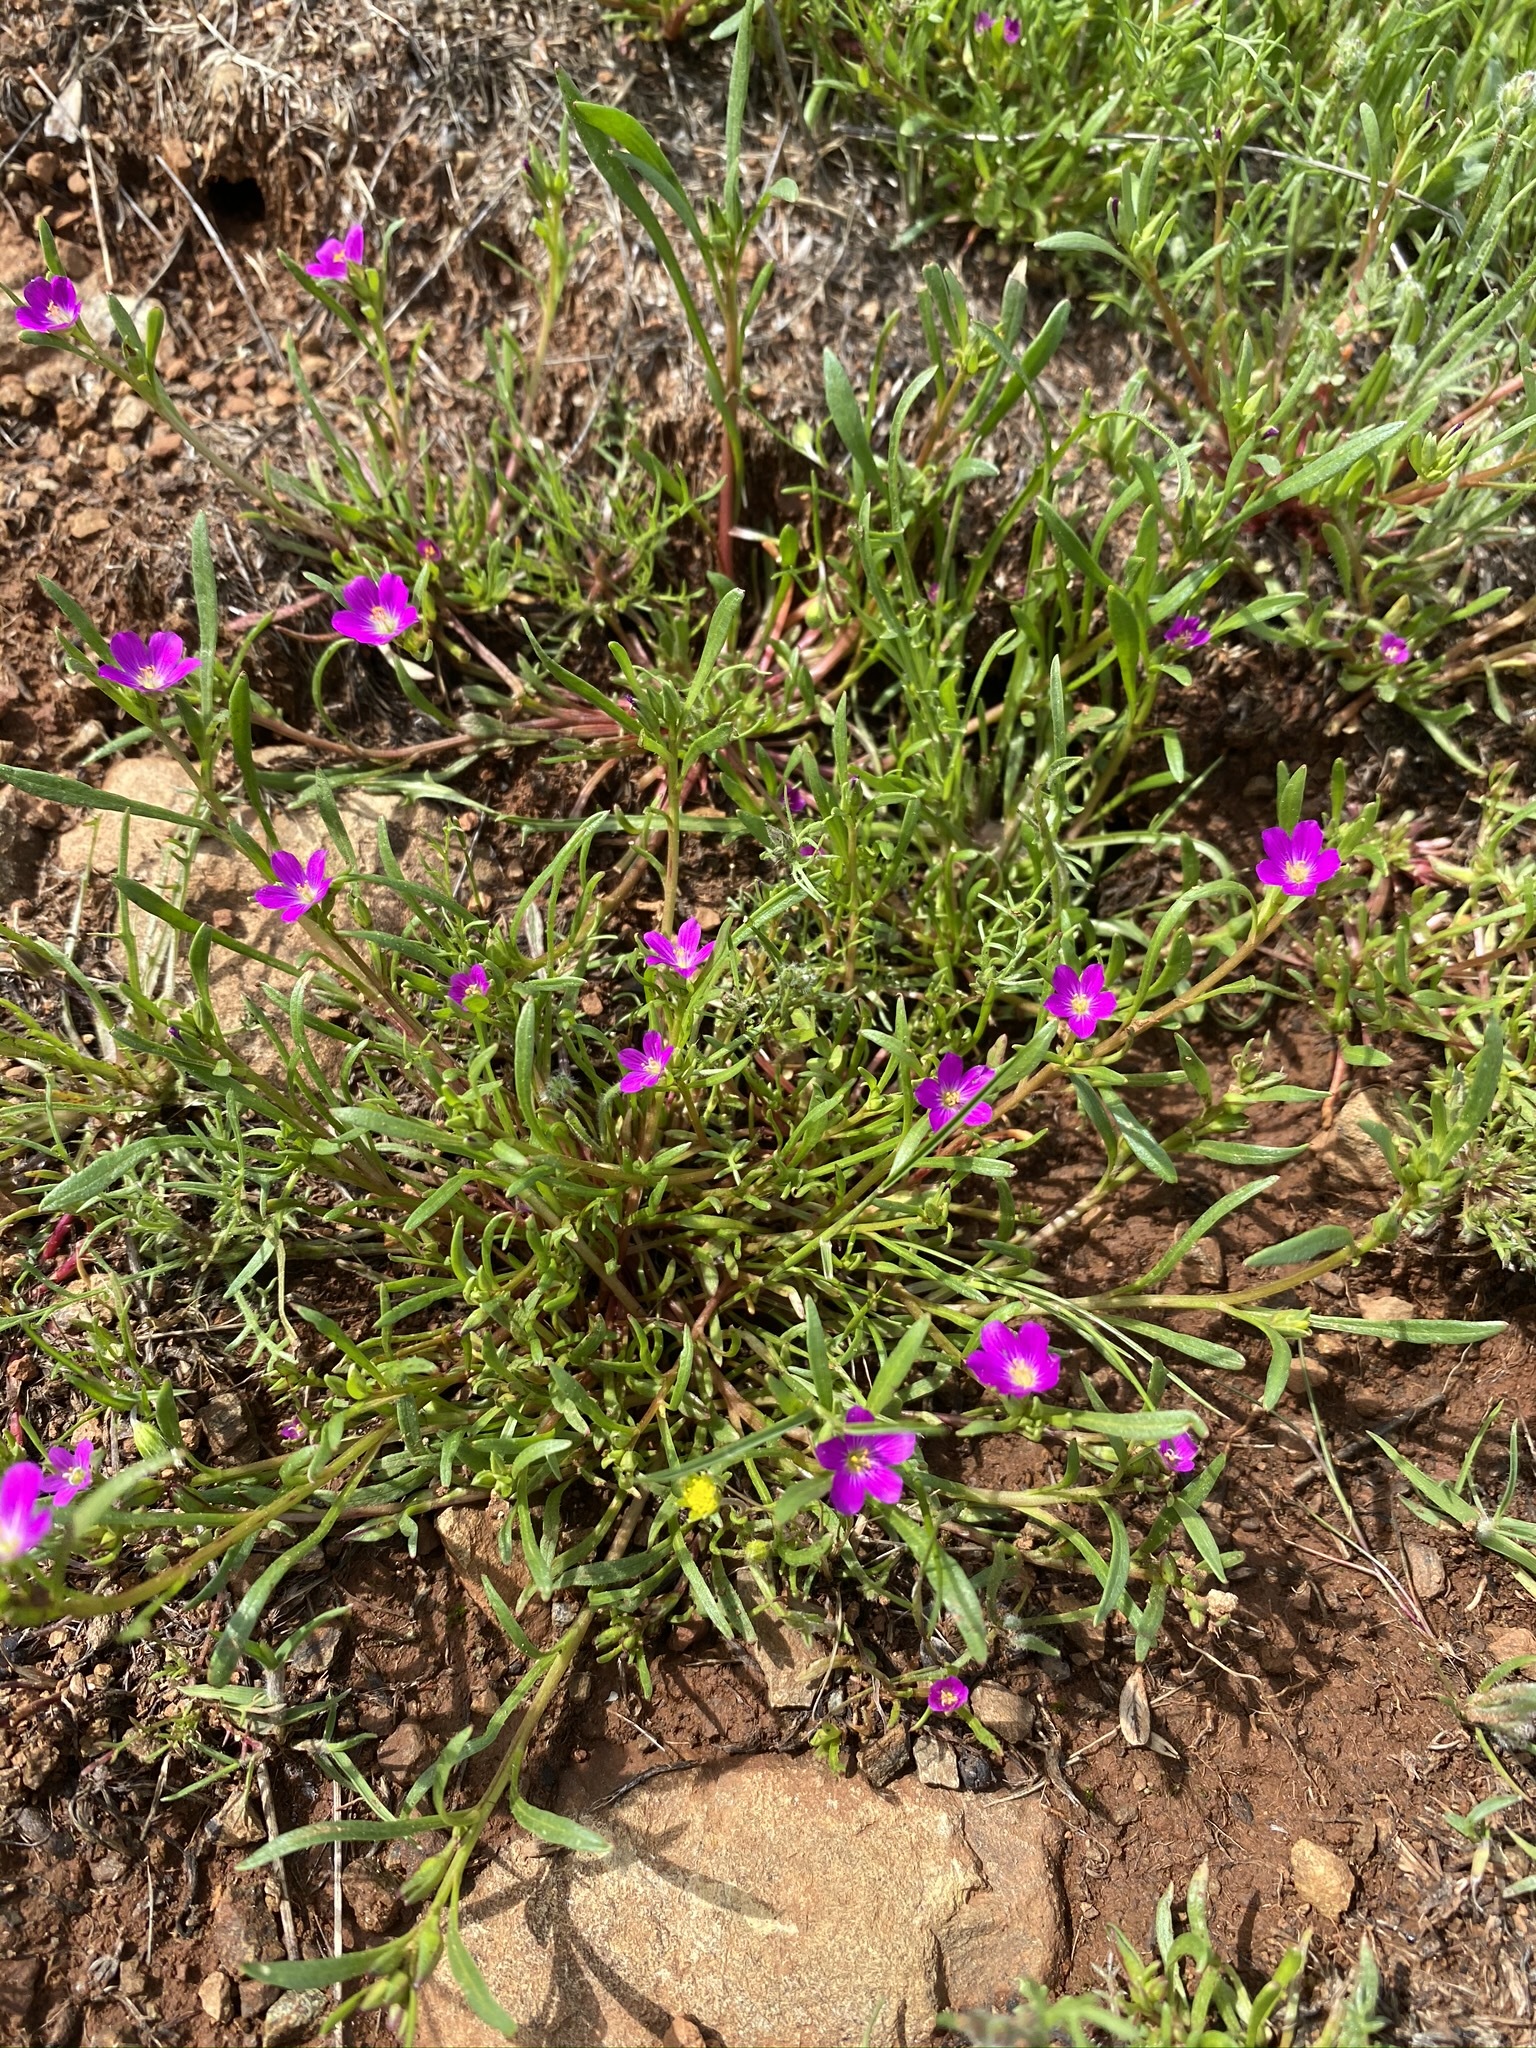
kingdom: Plantae
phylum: Tracheophyta
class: Magnoliopsida
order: Caryophyllales
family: Montiaceae
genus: Calandrinia
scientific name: Calandrinia menziesii
